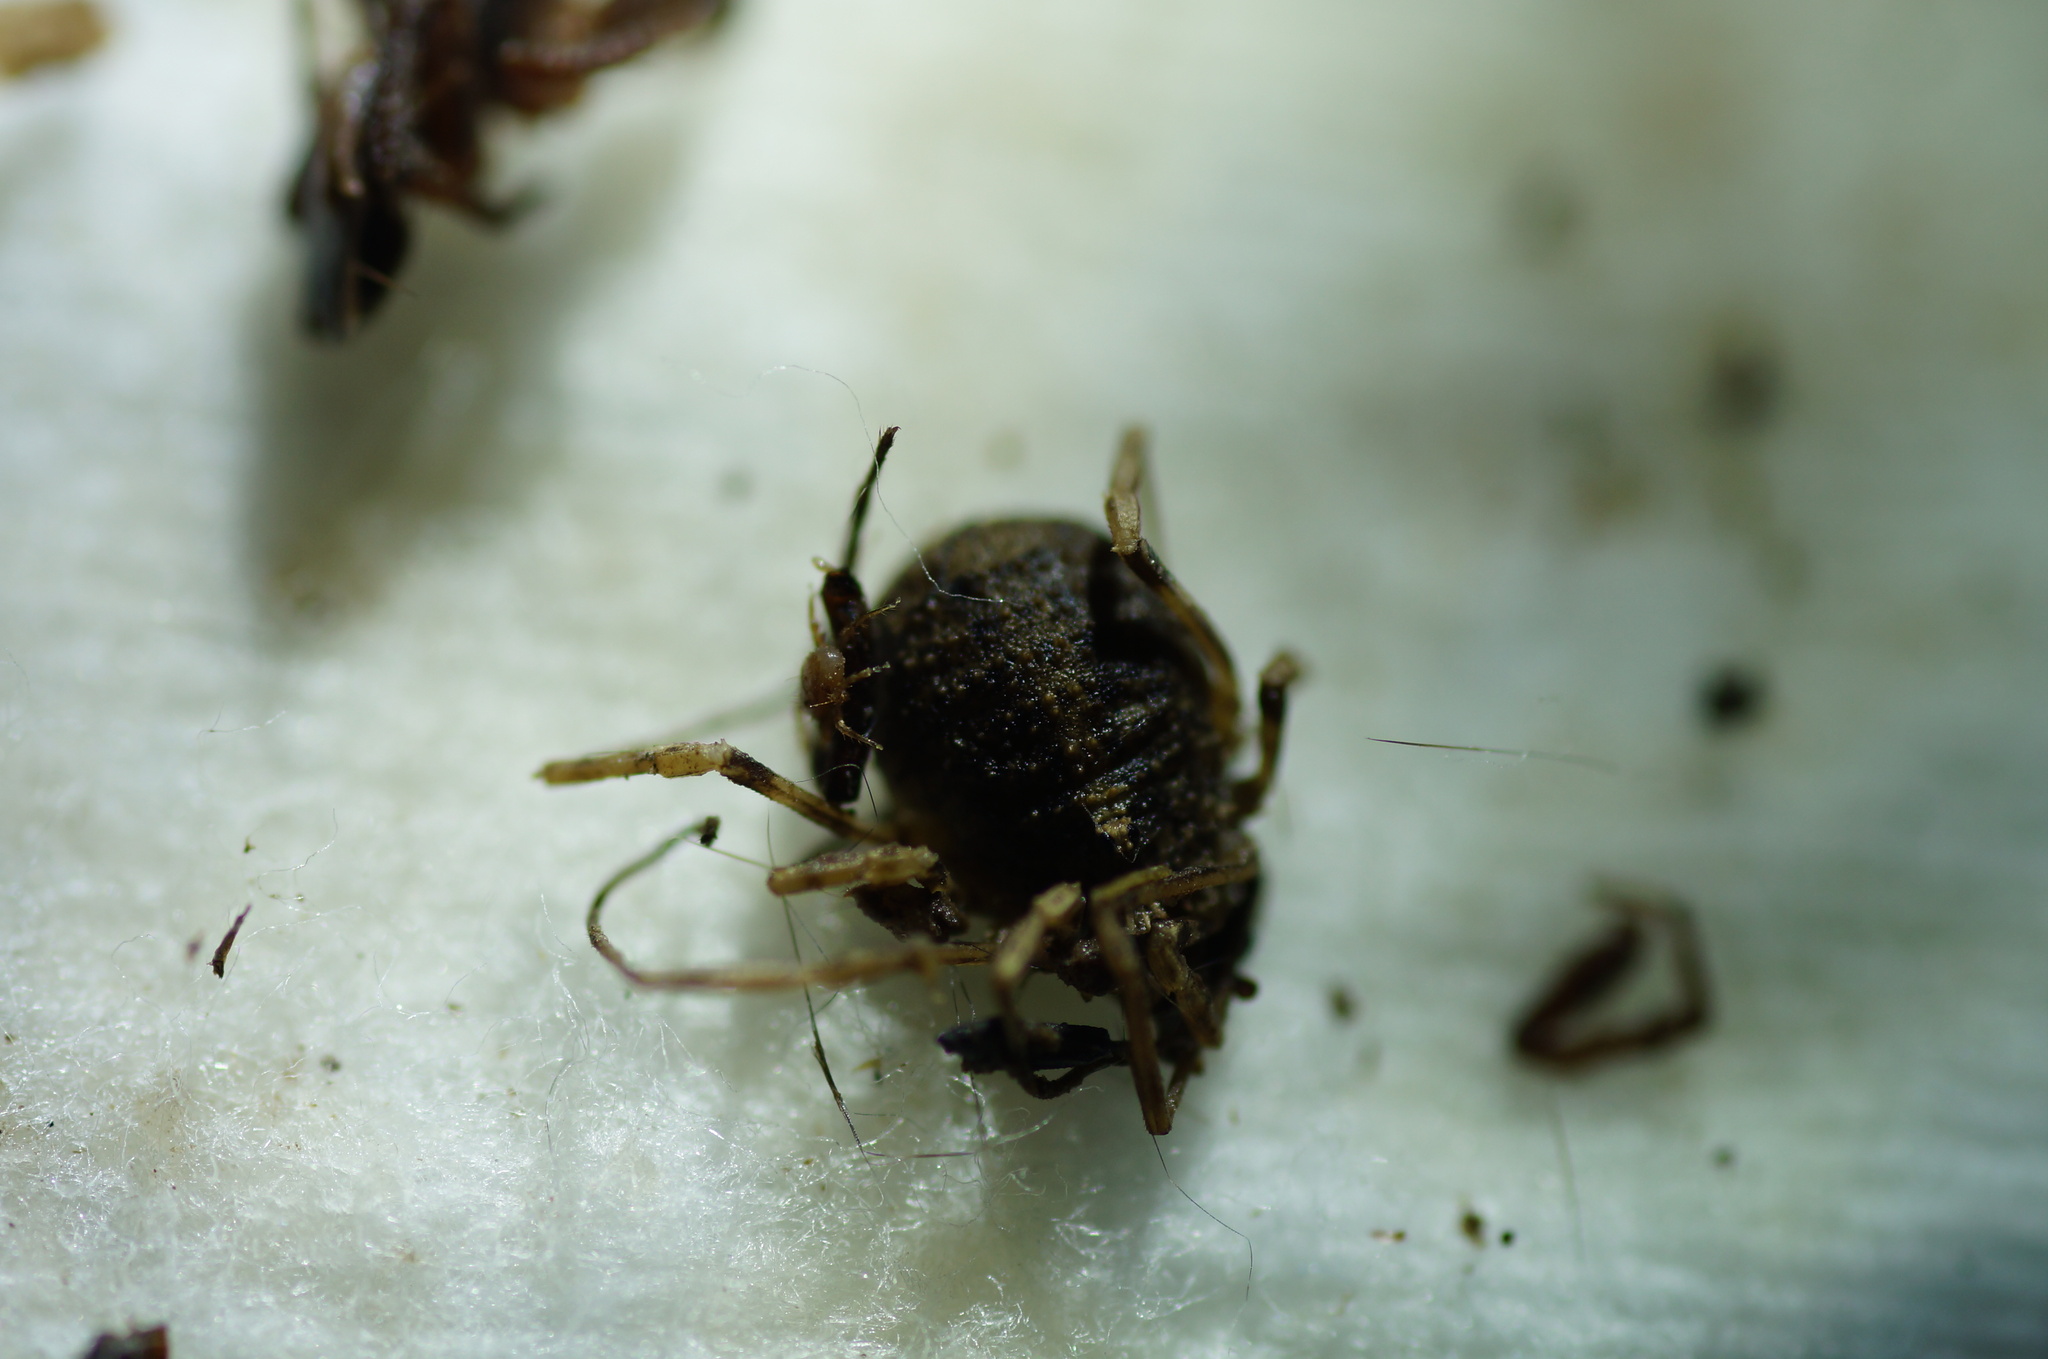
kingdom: Animalia
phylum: Arthropoda
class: Arachnida
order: Opiliones
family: Phalangiidae
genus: Odiellus
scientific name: Odiellus lendlii
